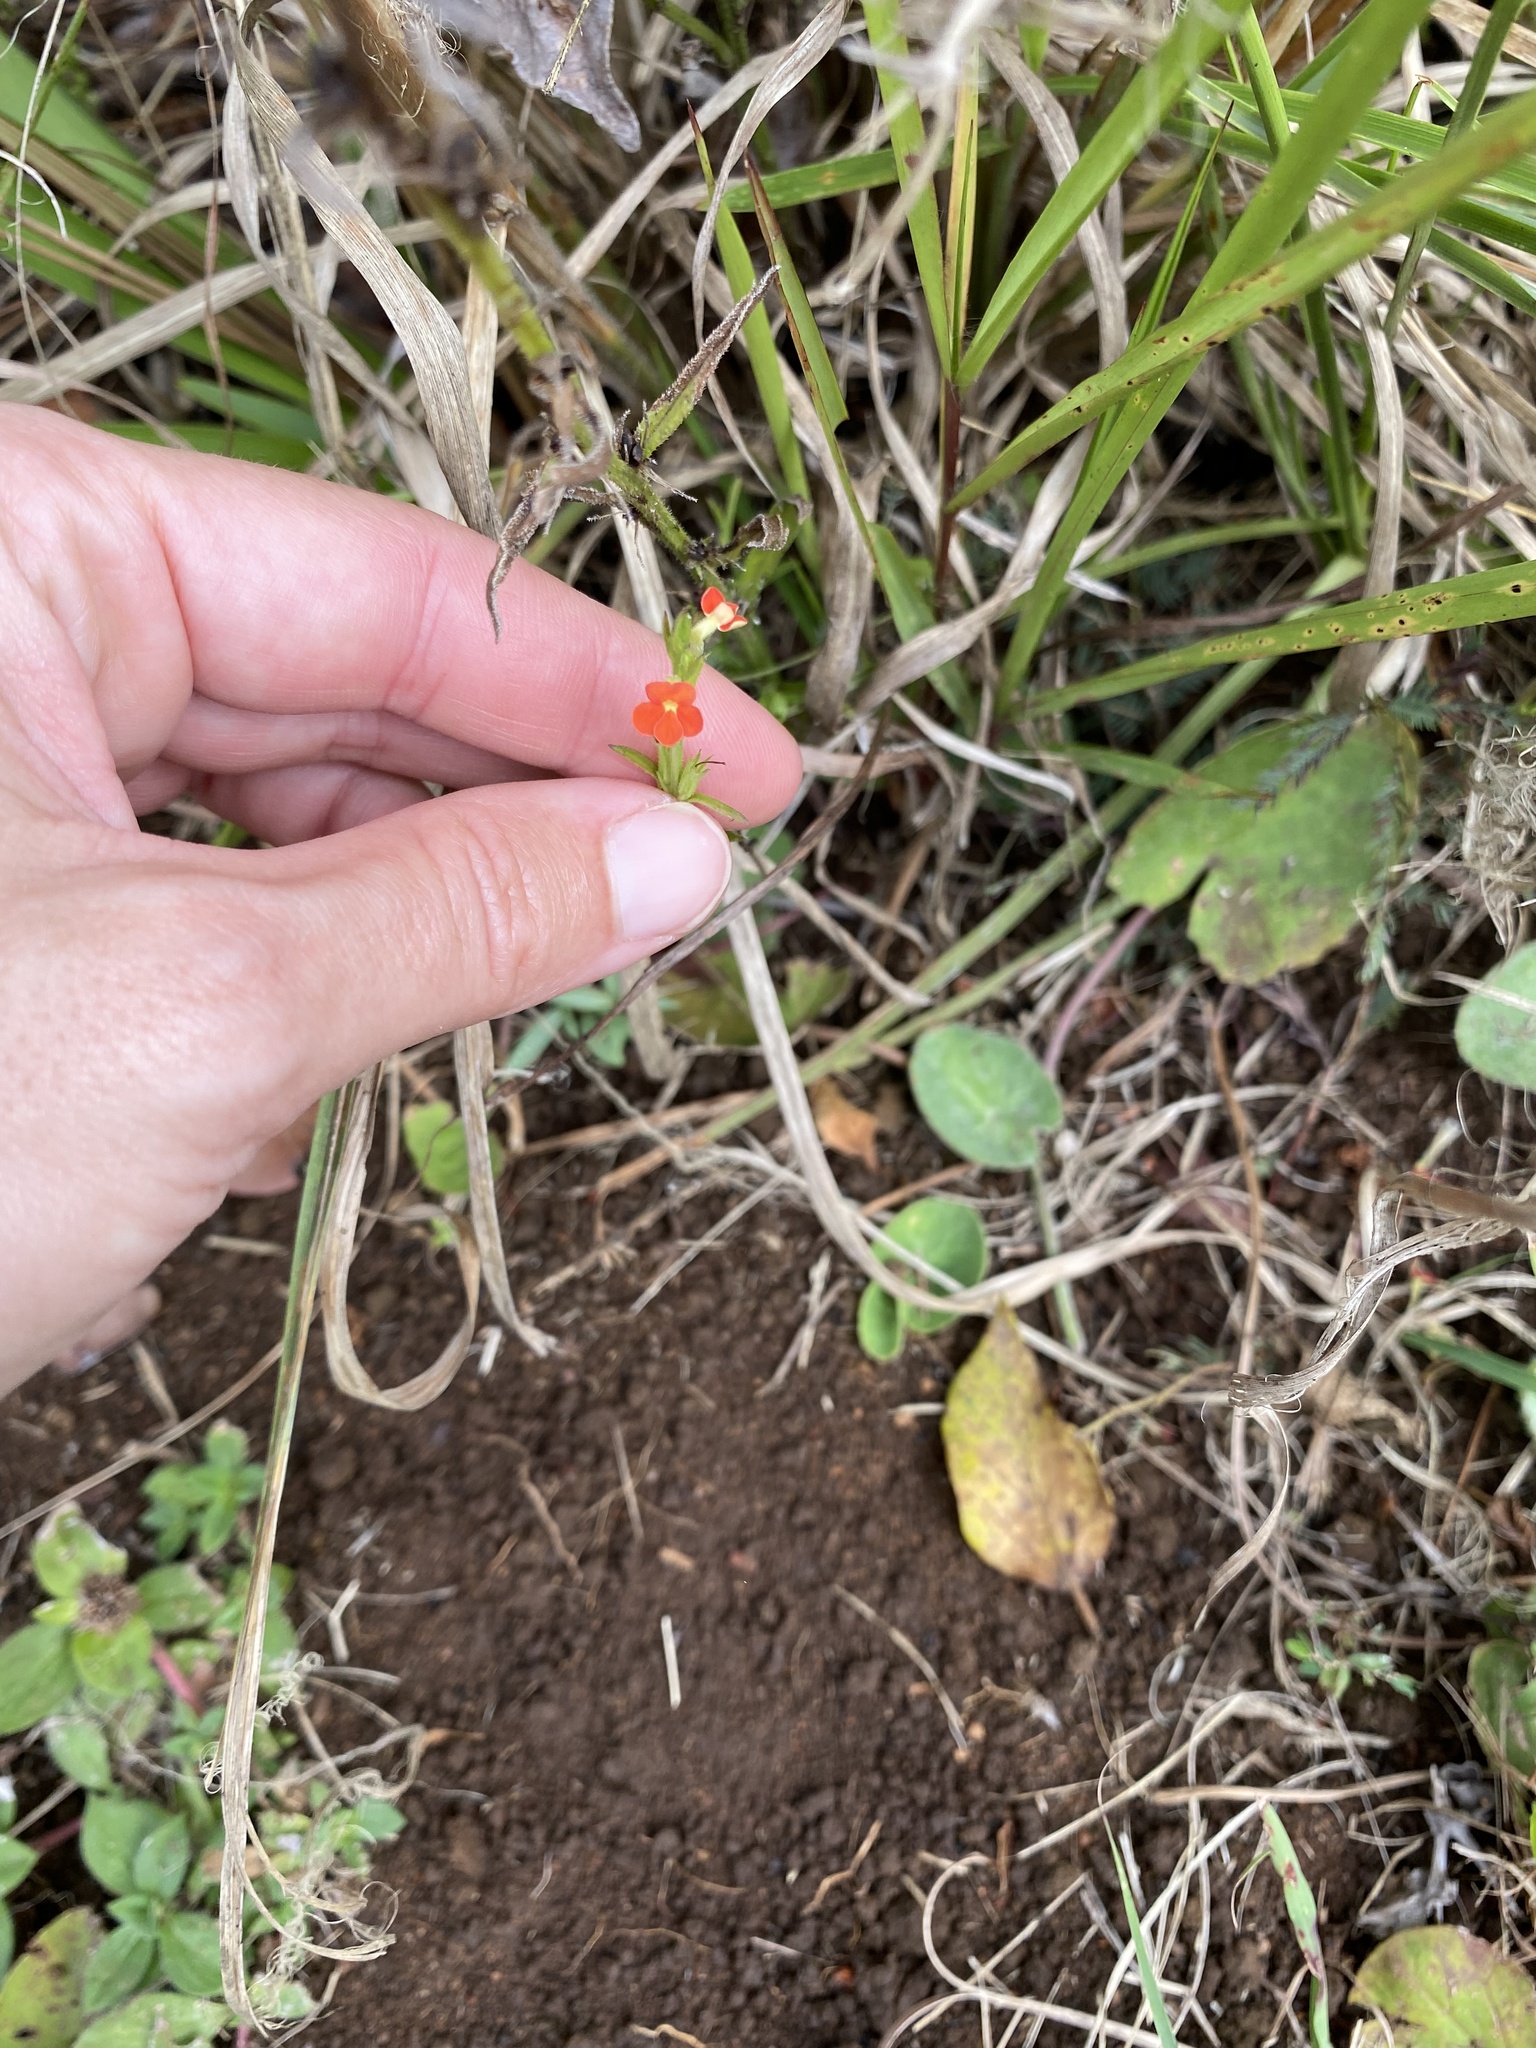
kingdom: Plantae
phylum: Tracheophyta
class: Magnoliopsida
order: Lamiales
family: Orobanchaceae
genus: Striga
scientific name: Striga asiatica
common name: Asiatic witchweed
